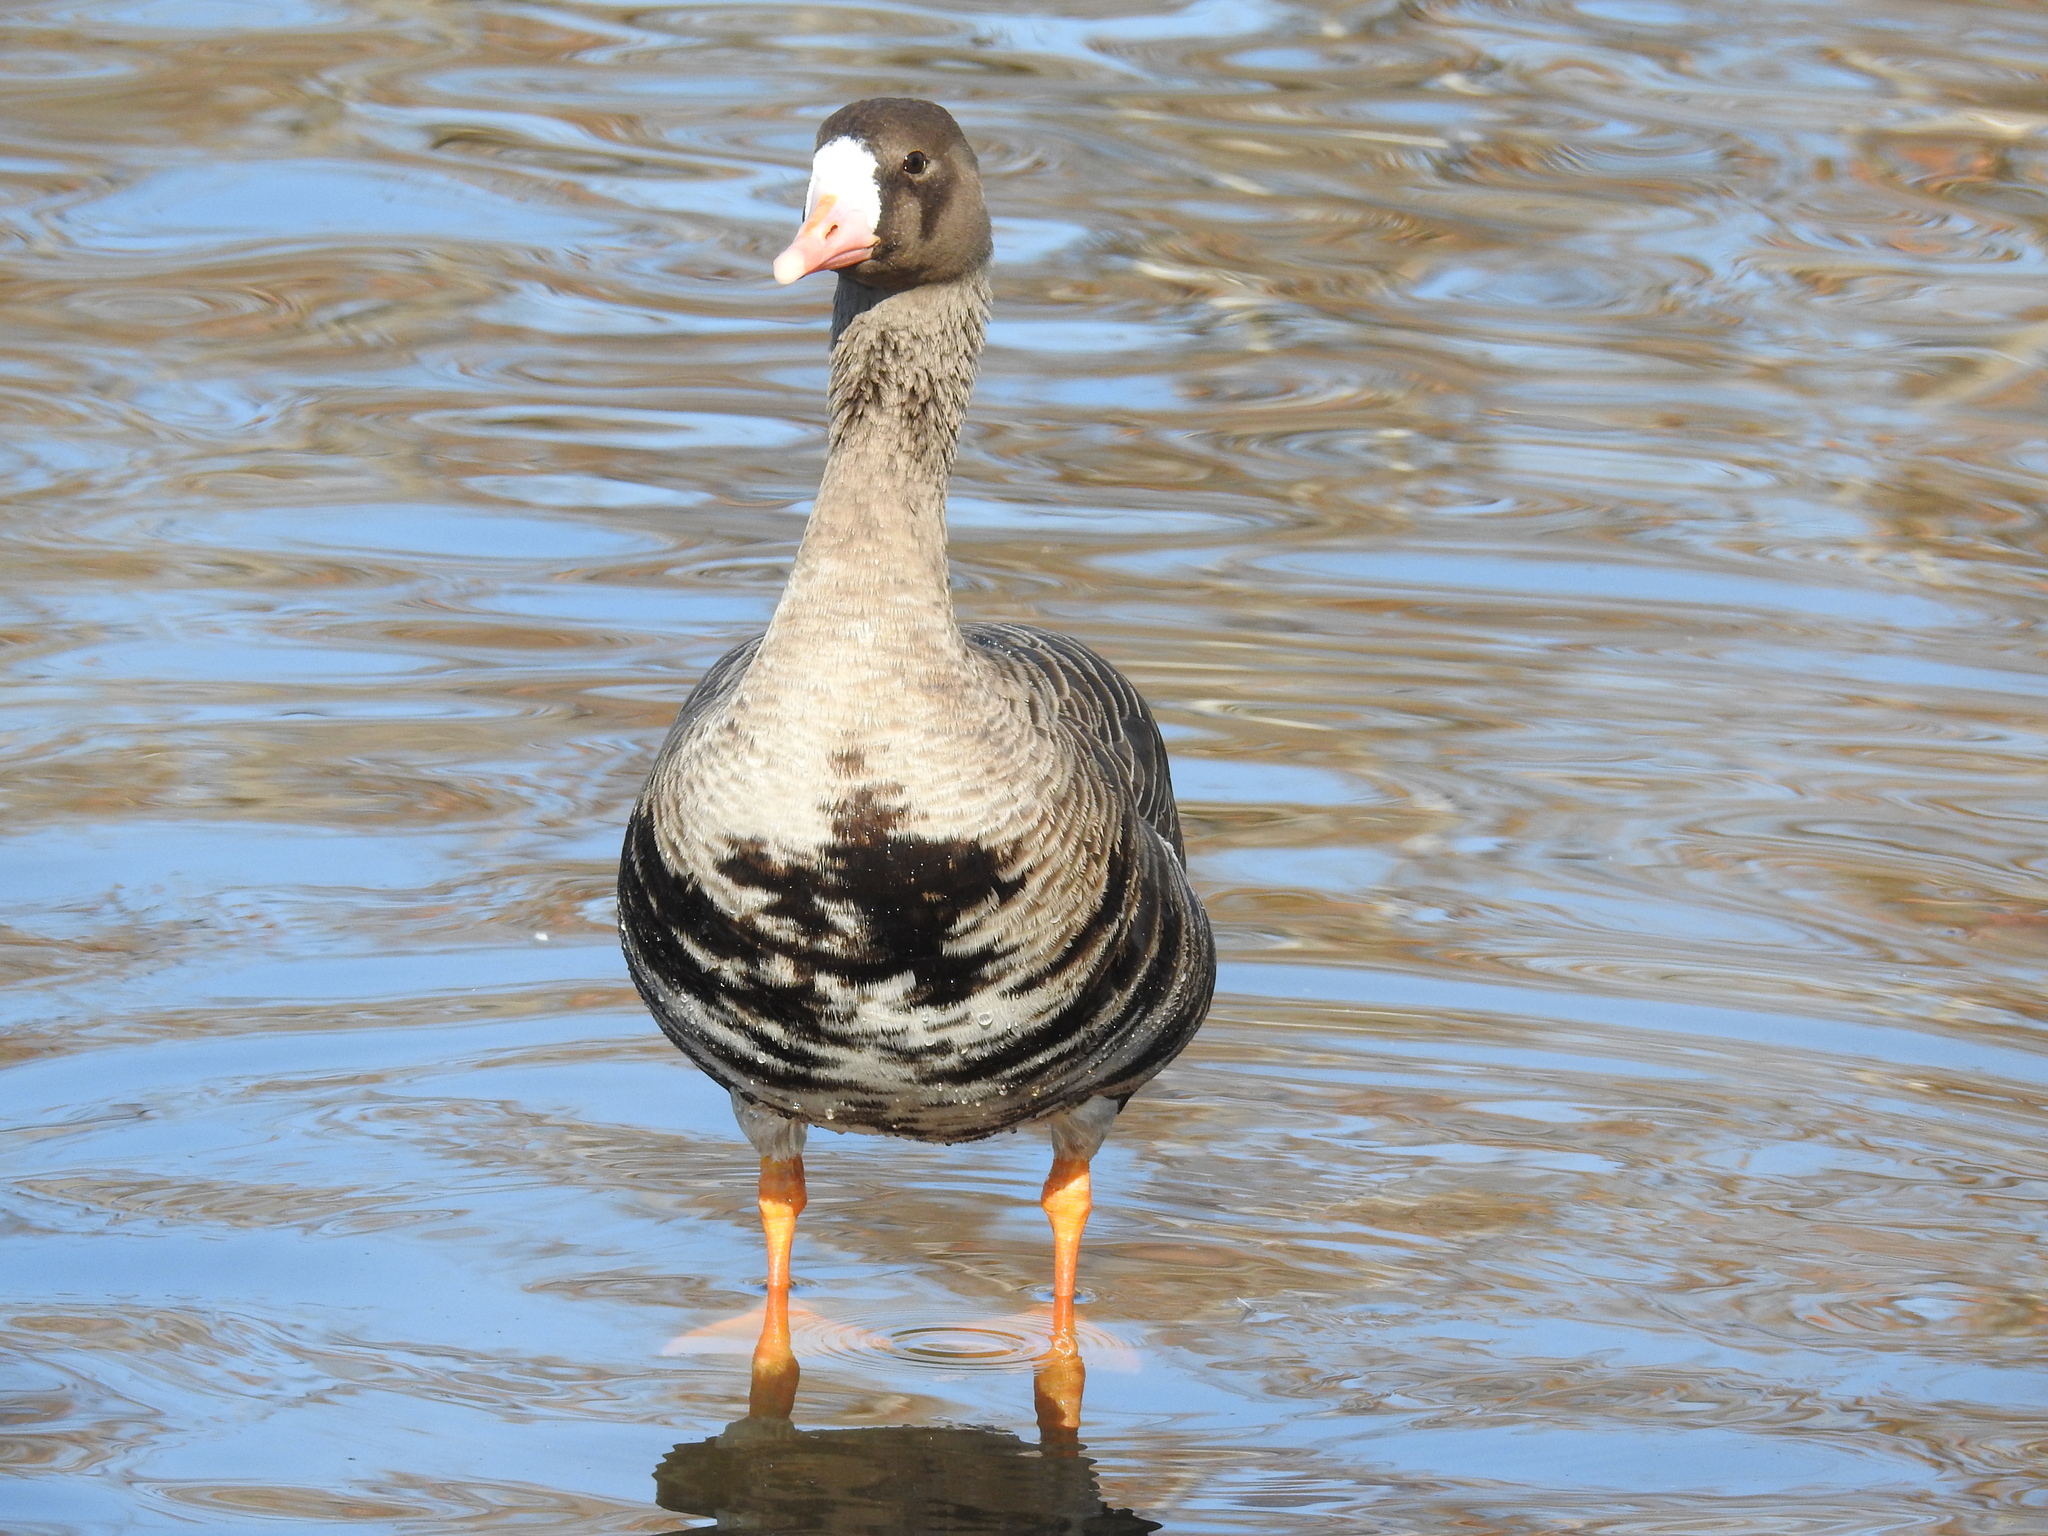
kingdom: Animalia
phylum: Chordata
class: Aves
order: Anseriformes
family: Anatidae
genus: Anser
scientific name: Anser albifrons
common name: Greater white-fronted goose
